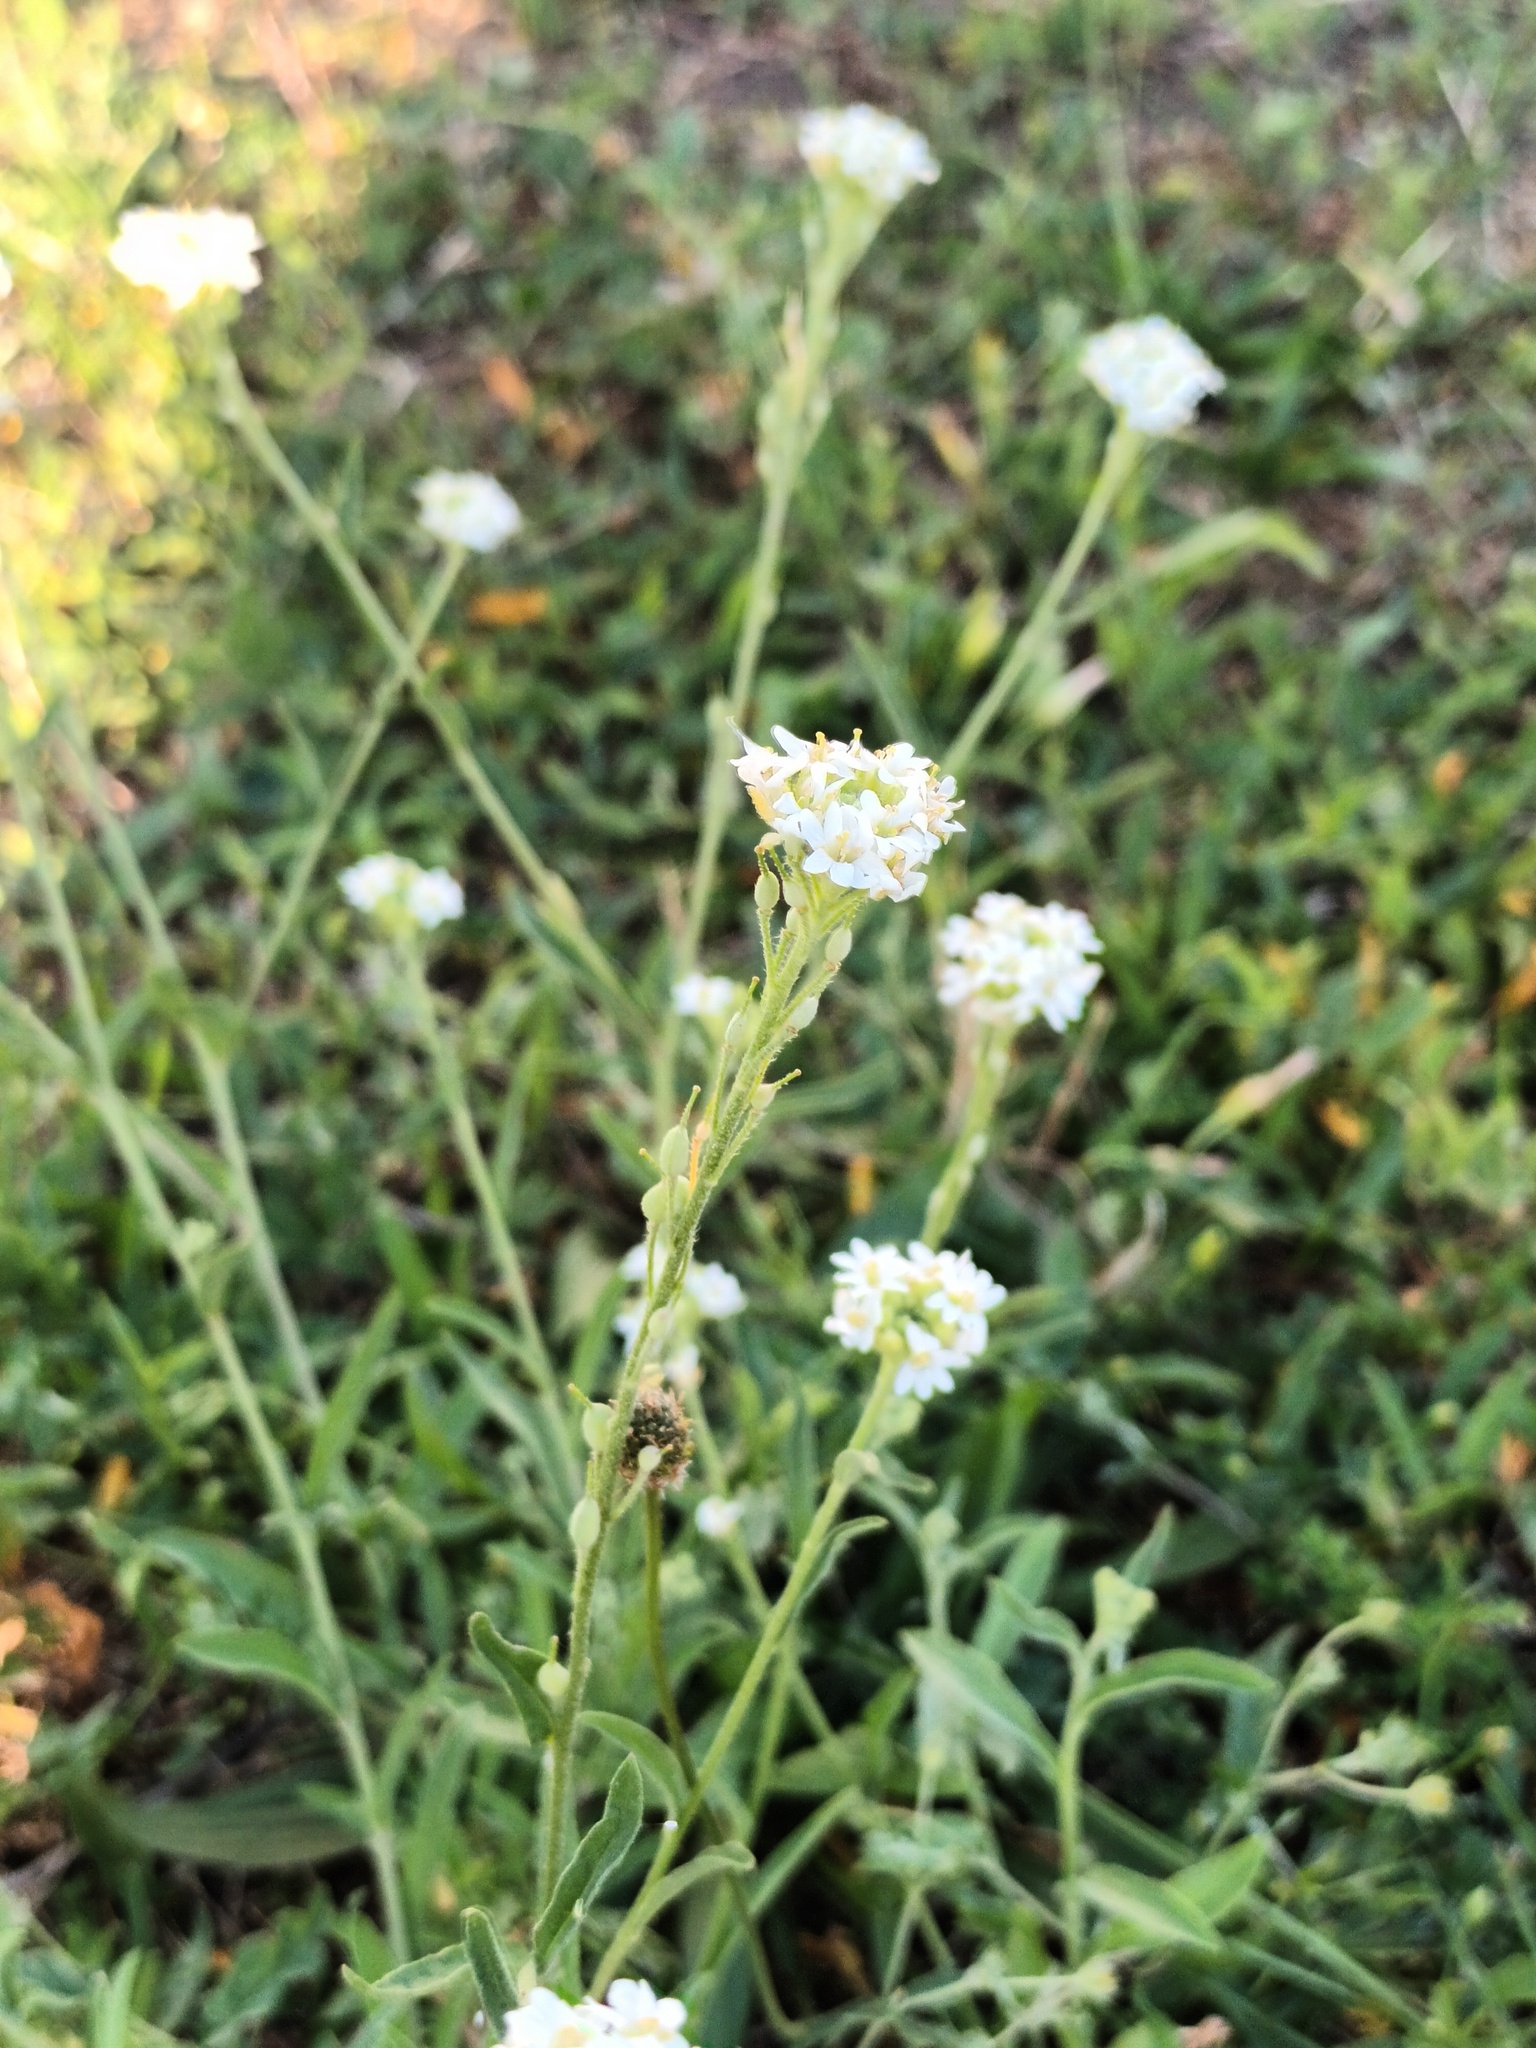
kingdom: Plantae
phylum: Tracheophyta
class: Magnoliopsida
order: Brassicales
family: Brassicaceae
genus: Berteroa
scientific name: Berteroa incana
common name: Hoary alison
